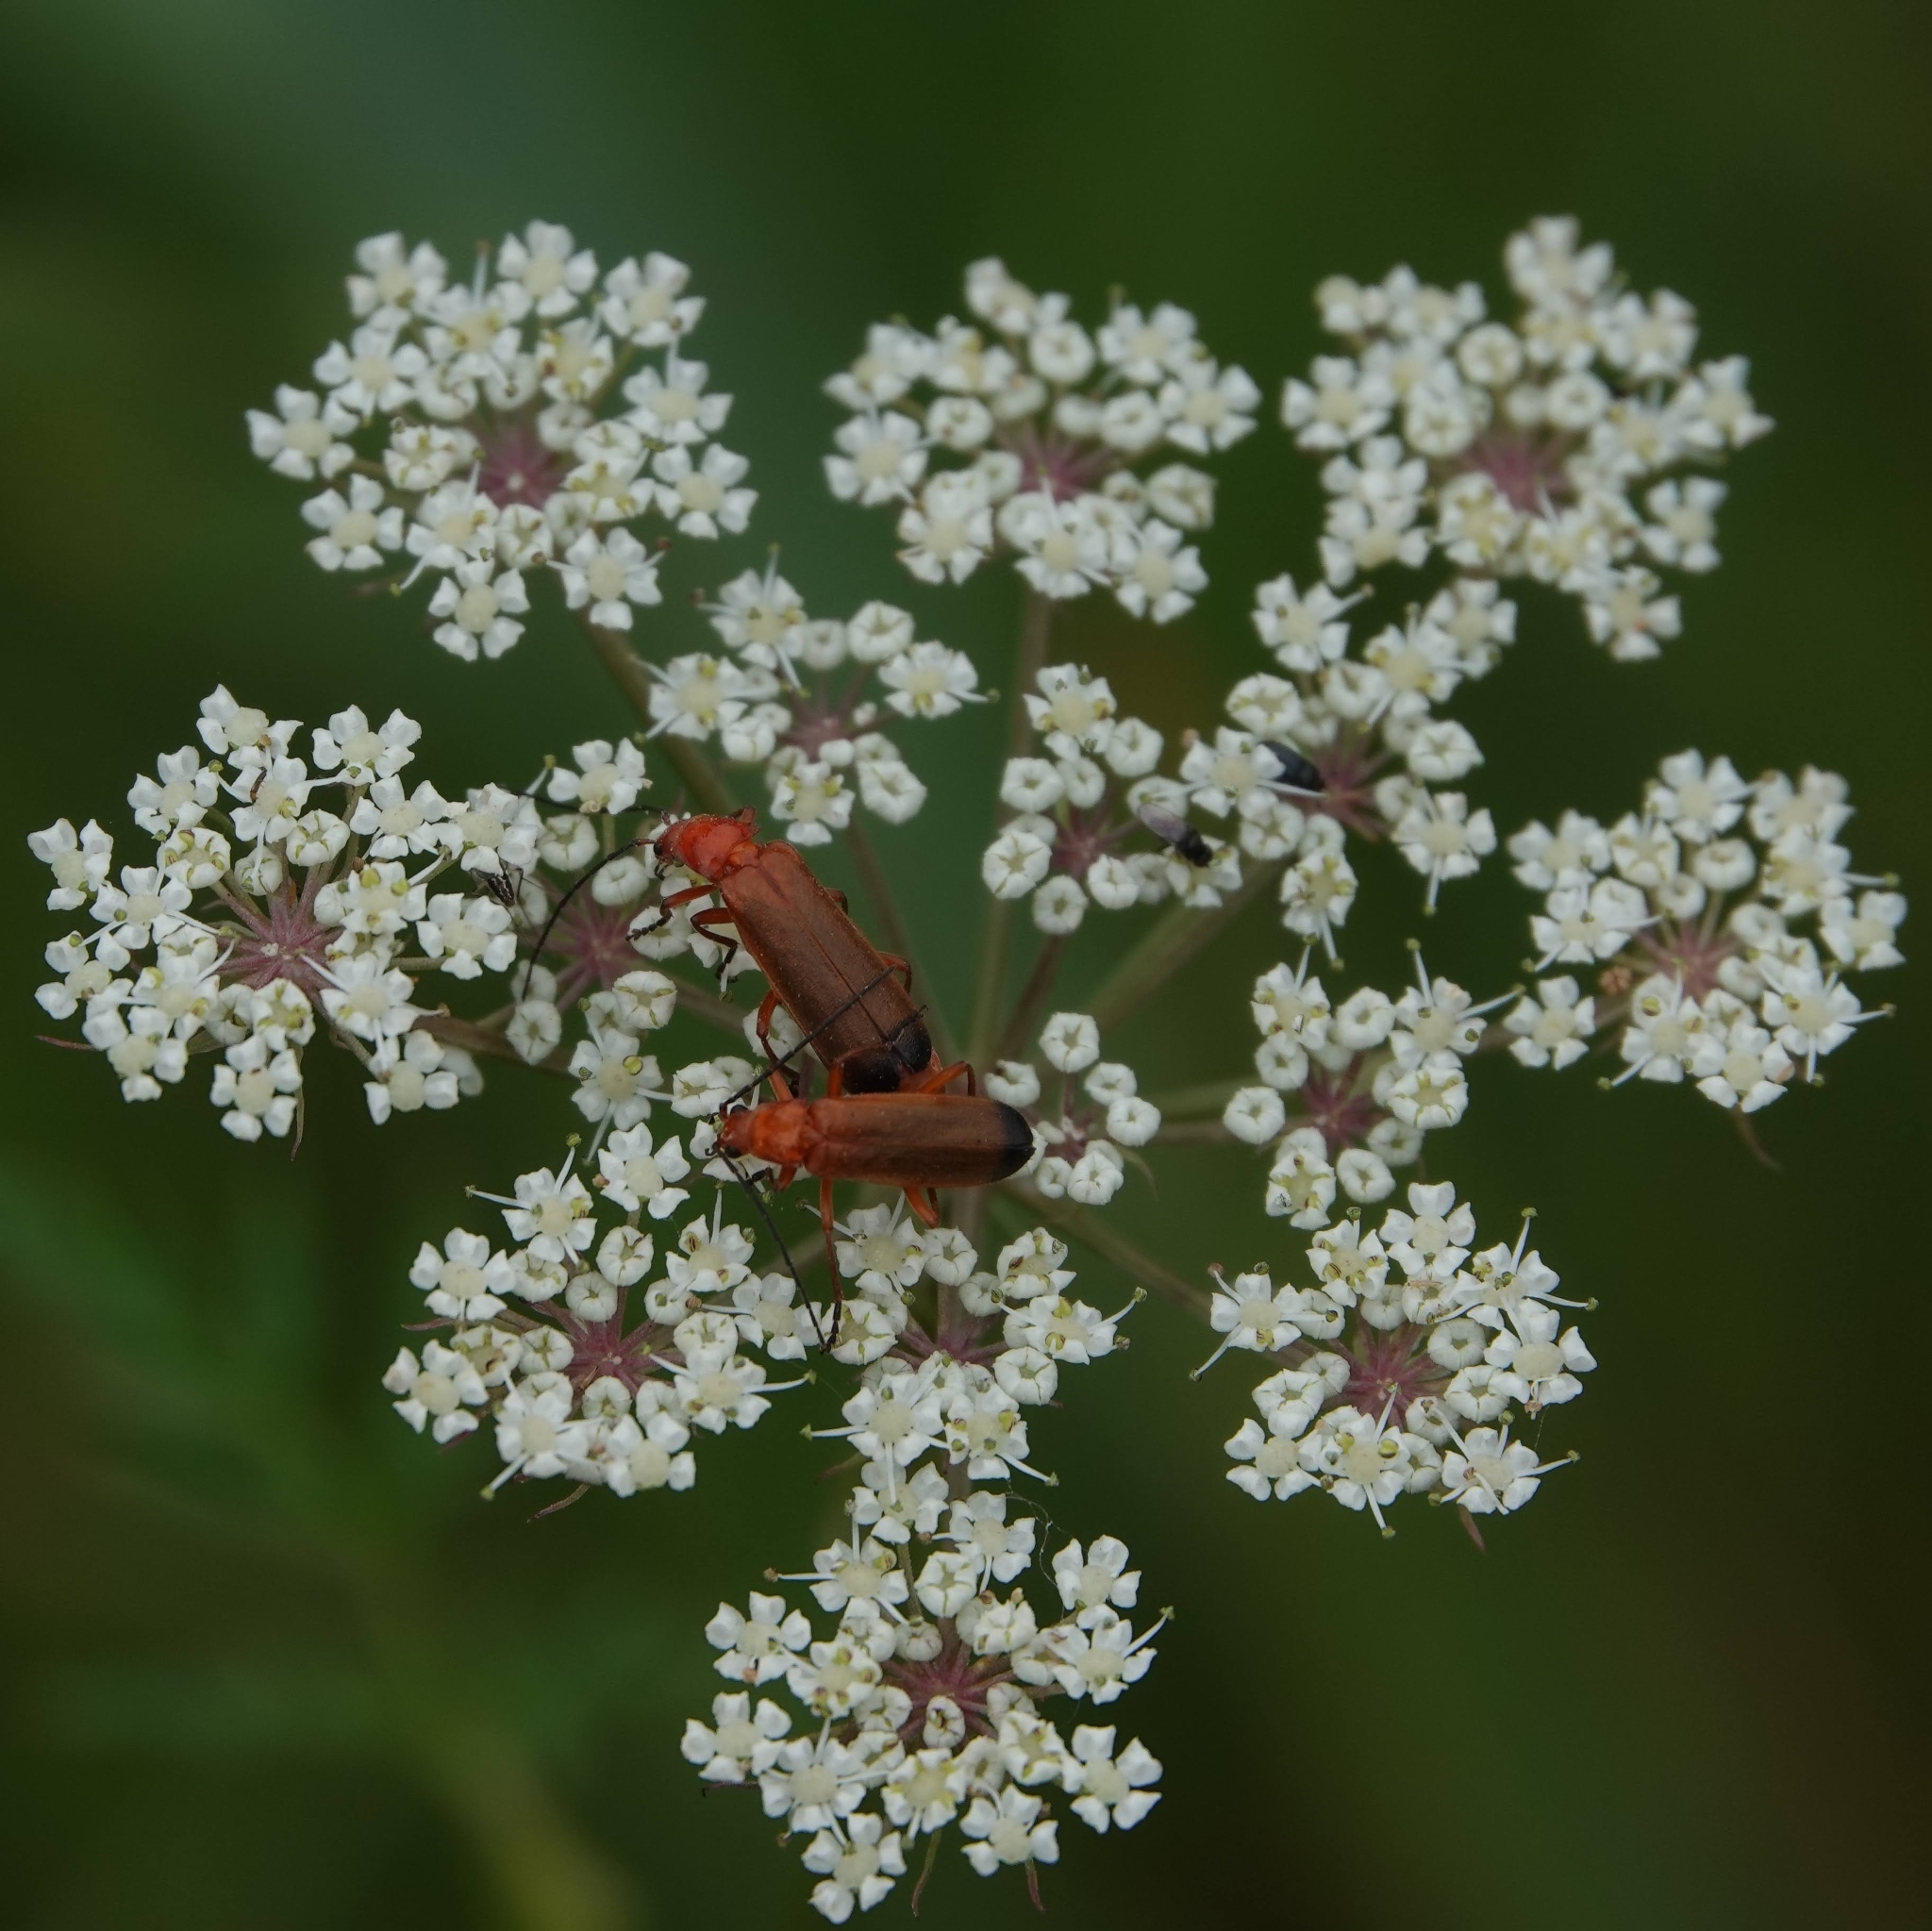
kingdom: Animalia
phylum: Arthropoda
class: Insecta
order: Coleoptera
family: Cantharidae
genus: Rhagonycha
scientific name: Rhagonycha fulva
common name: Common red soldier beetle
